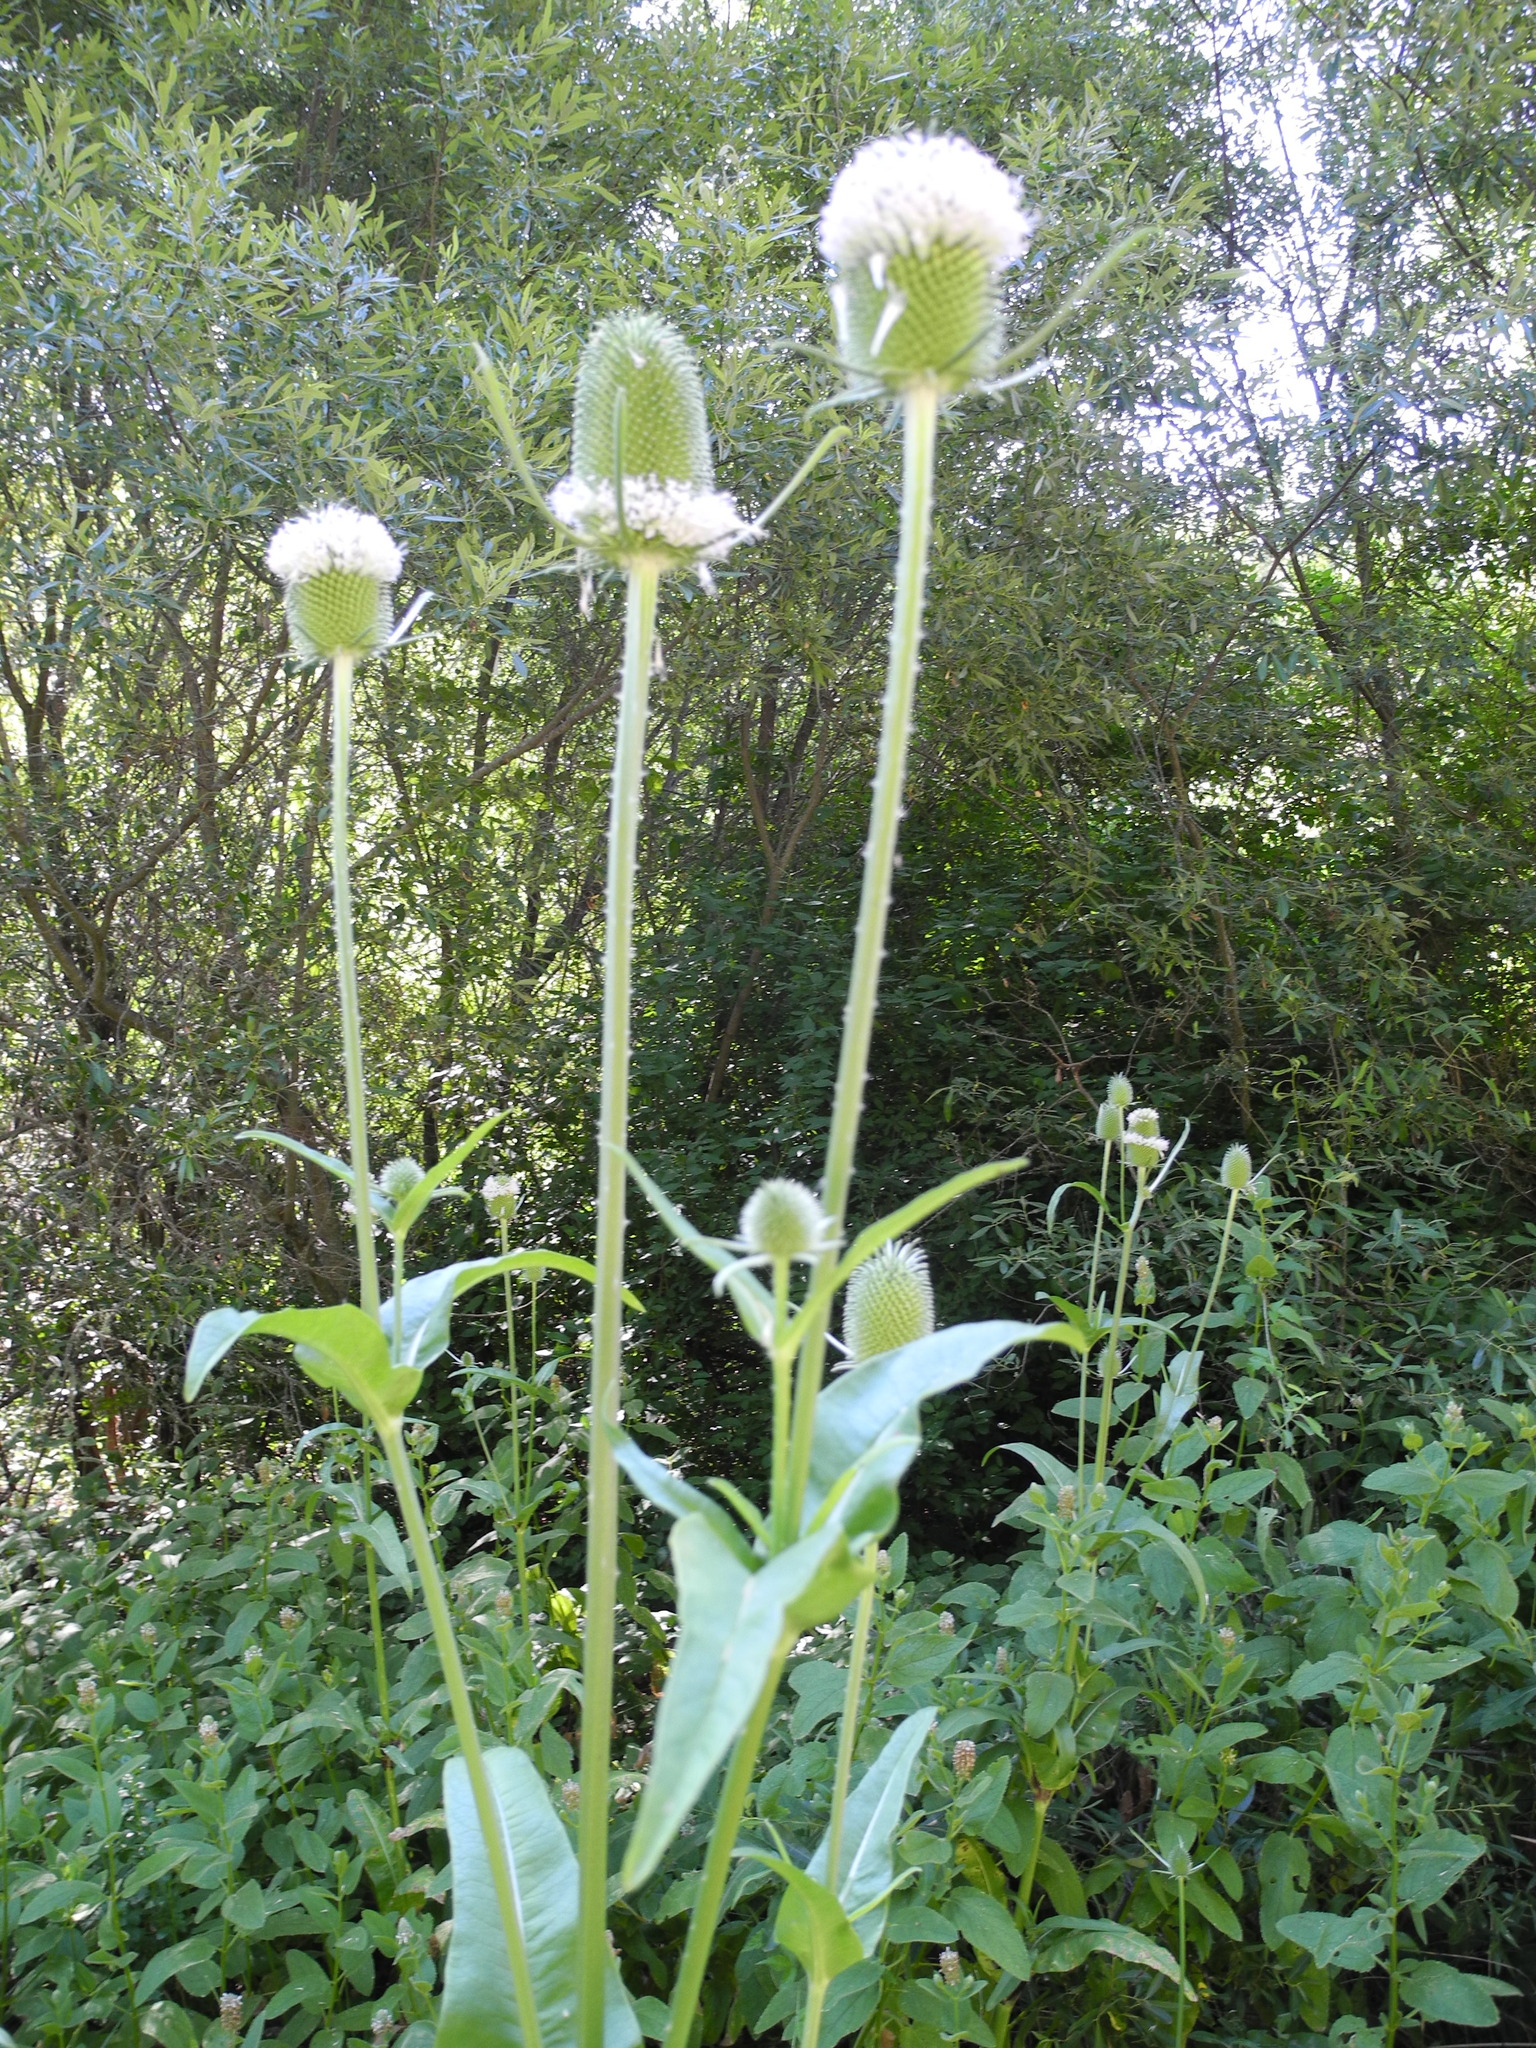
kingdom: Plantae
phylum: Tracheophyta
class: Magnoliopsida
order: Dipsacales
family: Caprifoliaceae
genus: Dipsacus
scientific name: Dipsacus sativus
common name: Fuller's teasel
